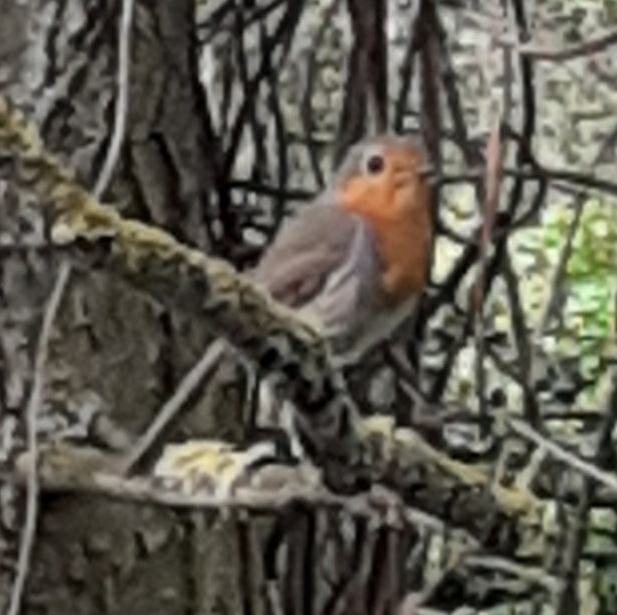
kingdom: Animalia
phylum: Chordata
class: Aves
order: Passeriformes
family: Muscicapidae
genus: Erithacus
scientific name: Erithacus rubecula
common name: European robin
